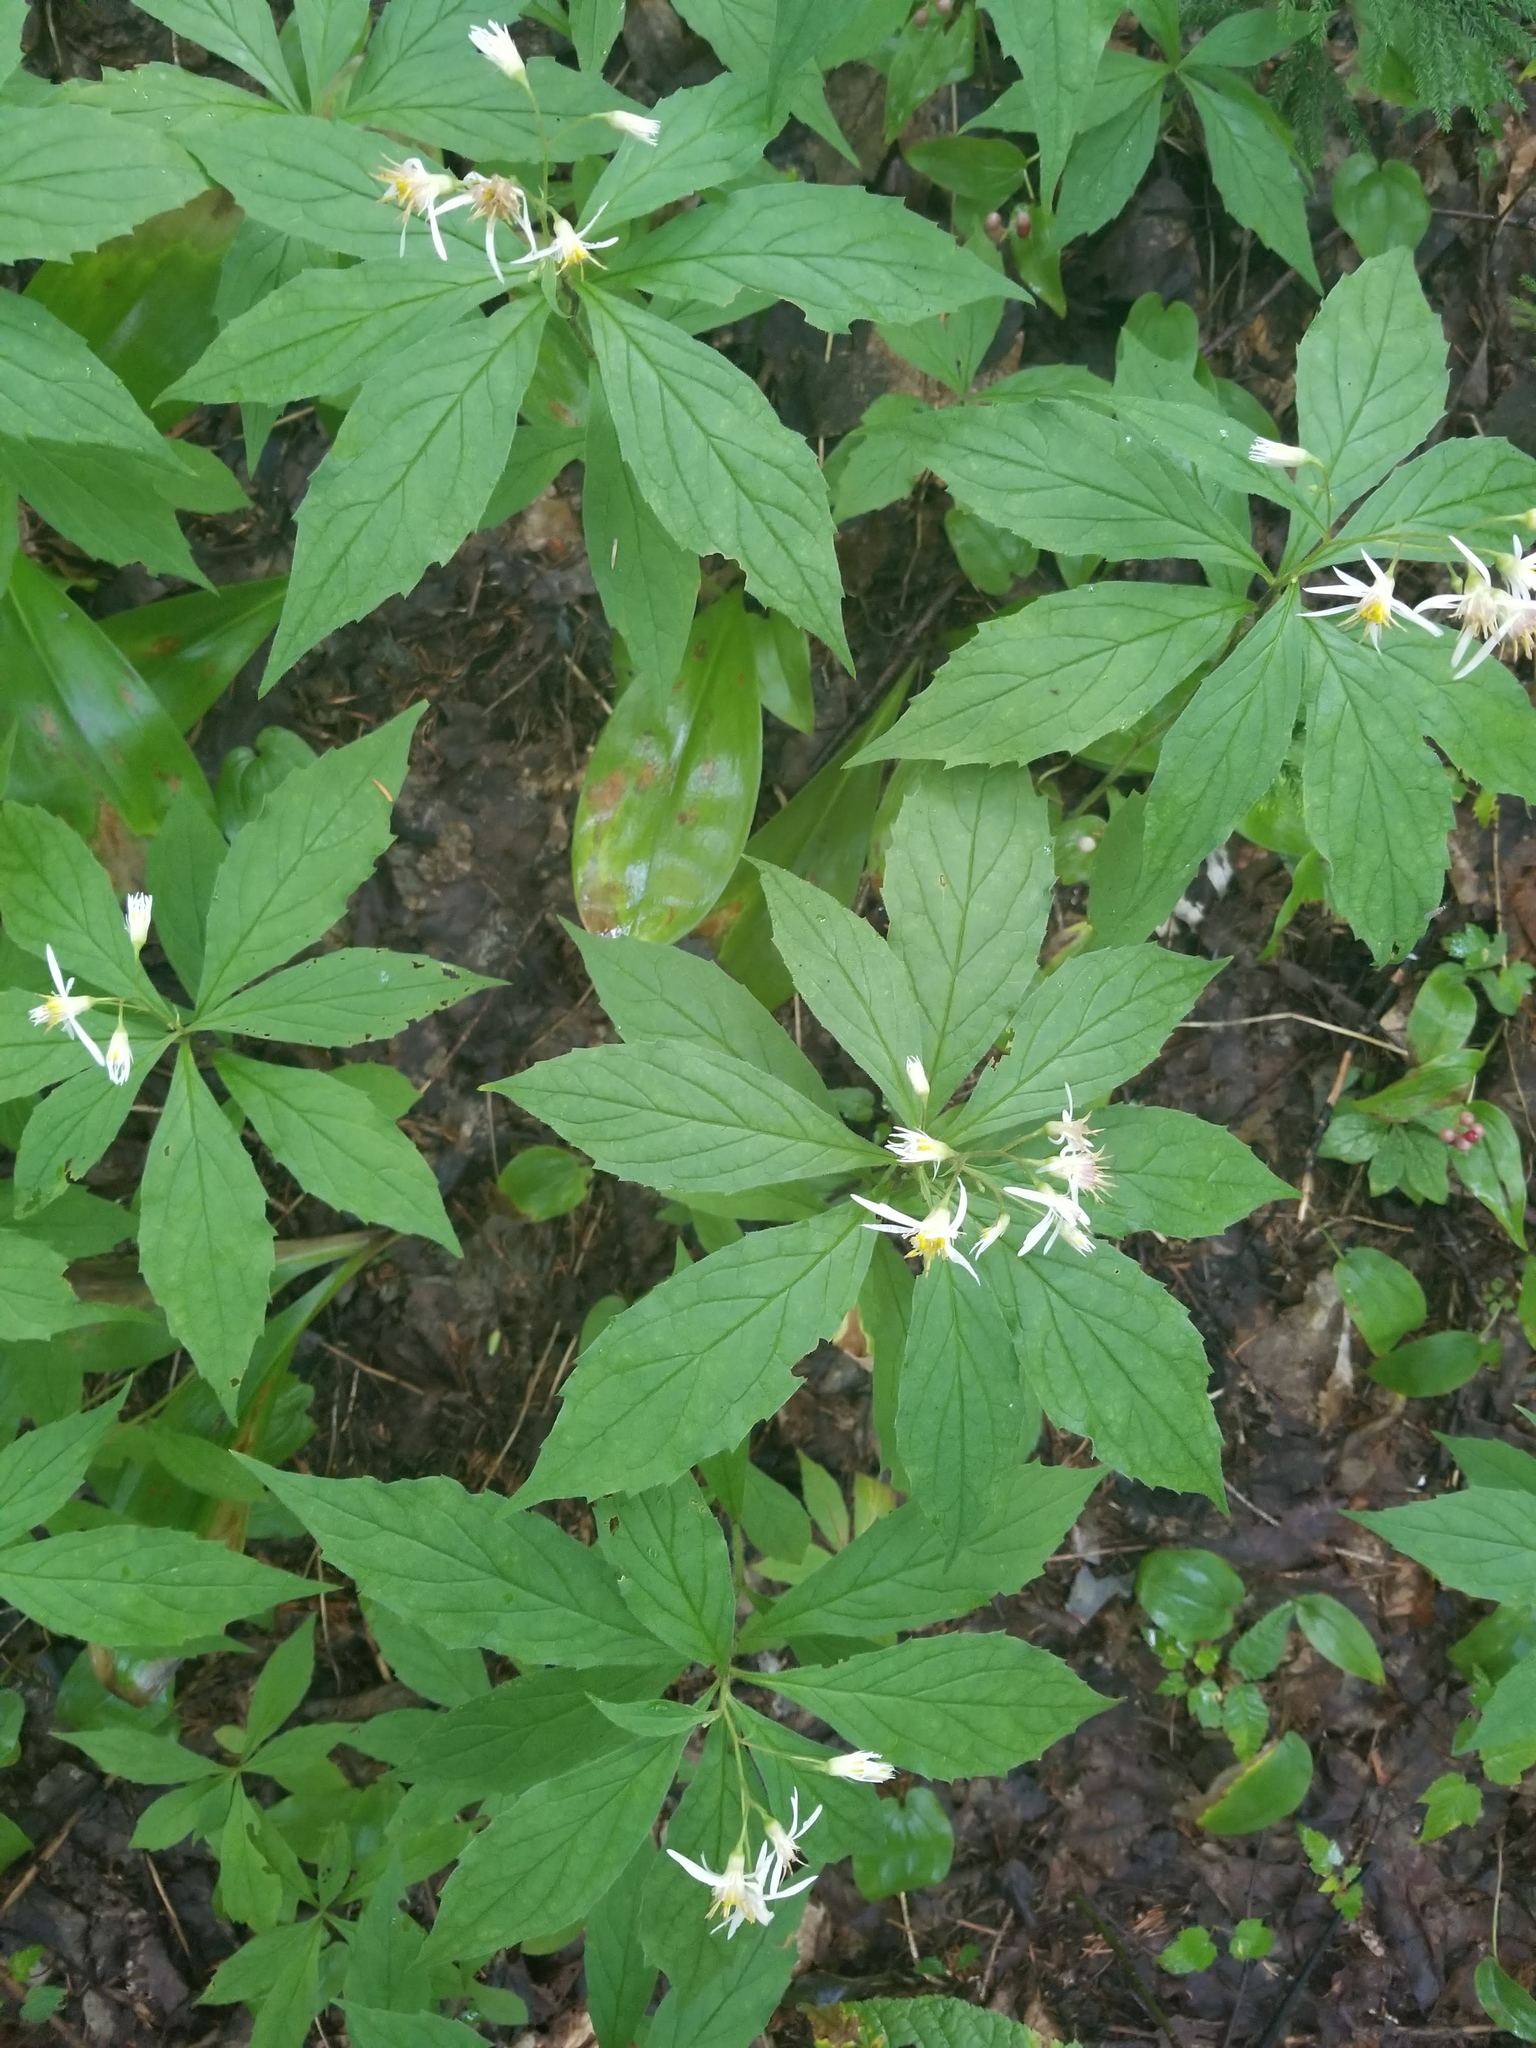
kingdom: Plantae
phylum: Tracheophyta
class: Magnoliopsida
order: Asterales
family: Asteraceae
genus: Oclemena
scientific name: Oclemena acuminata
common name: Mountain aster
